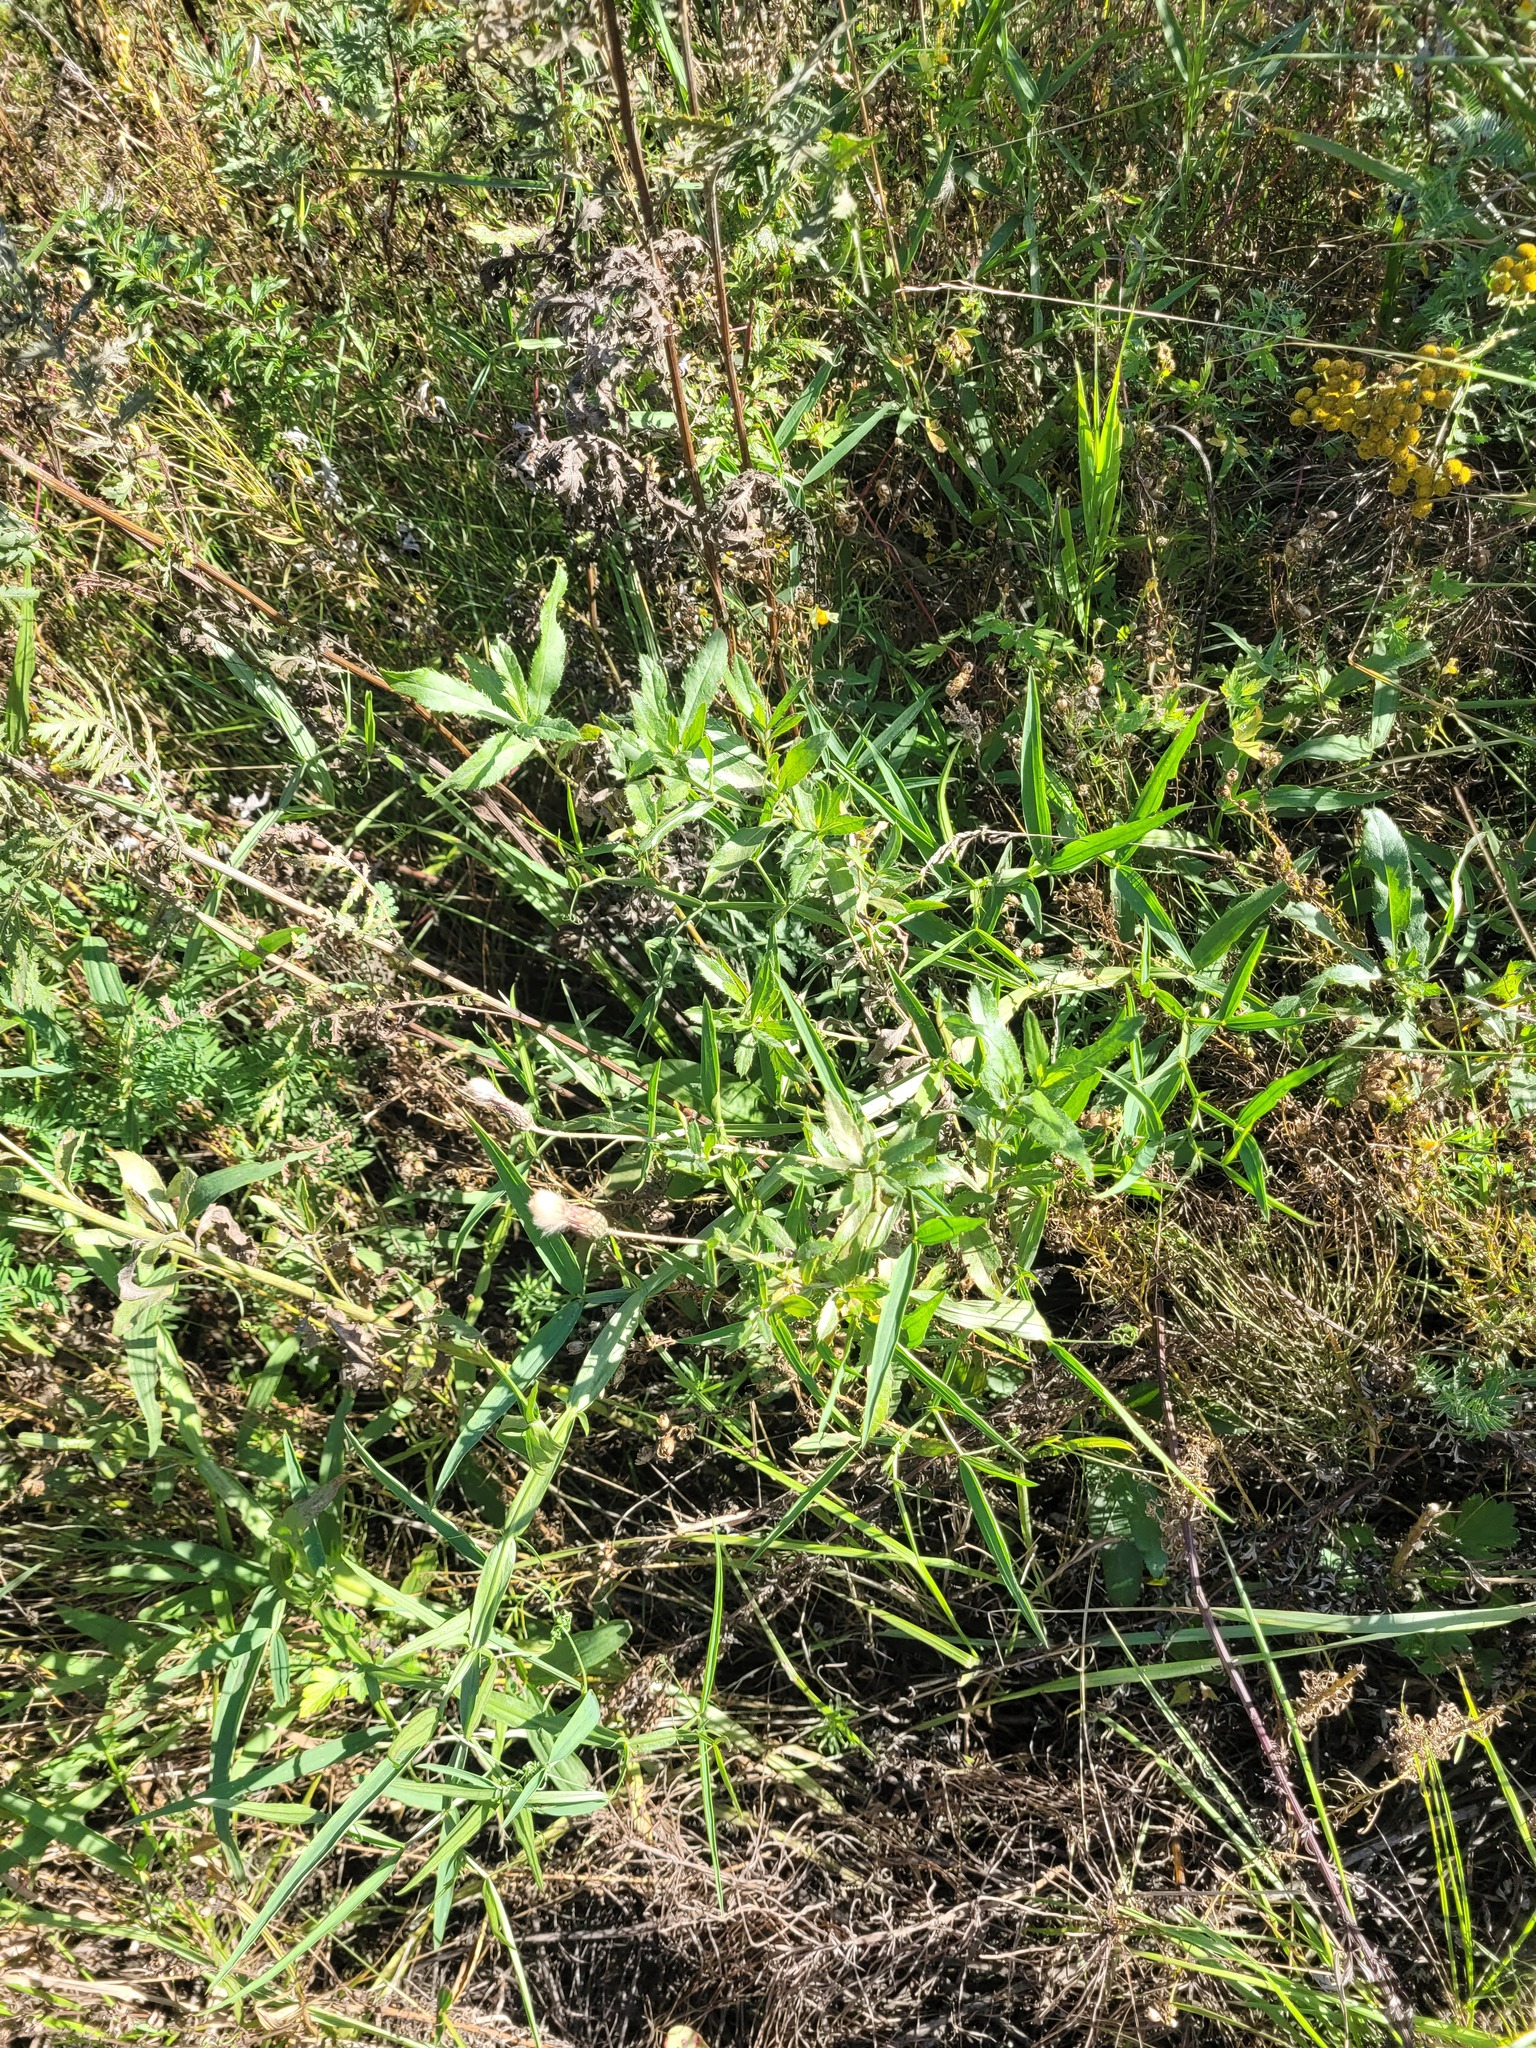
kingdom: Plantae
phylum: Tracheophyta
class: Magnoliopsida
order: Asterales
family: Asteraceae
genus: Cirsium
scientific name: Cirsium arvense
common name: Creeping thistle
